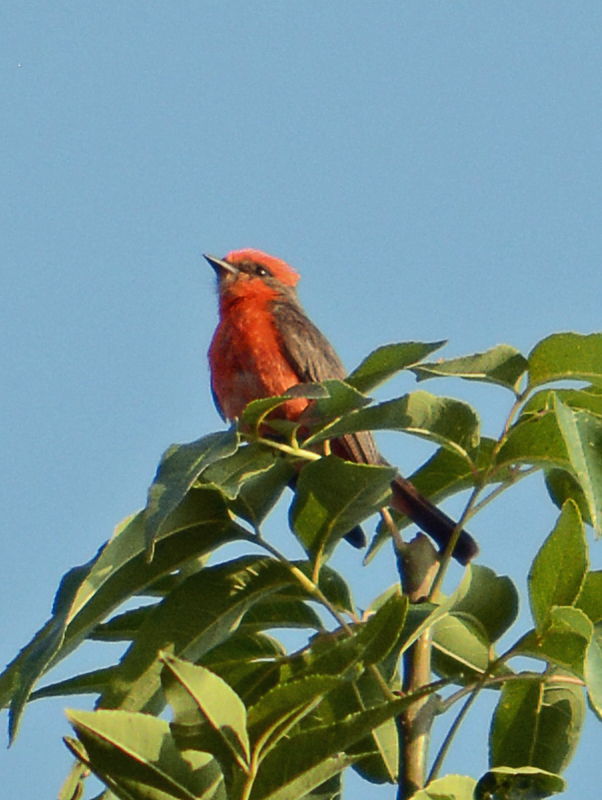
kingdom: Animalia
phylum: Chordata
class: Aves
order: Passeriformes
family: Tyrannidae
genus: Pyrocephalus
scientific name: Pyrocephalus rubinus
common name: Vermilion flycatcher
